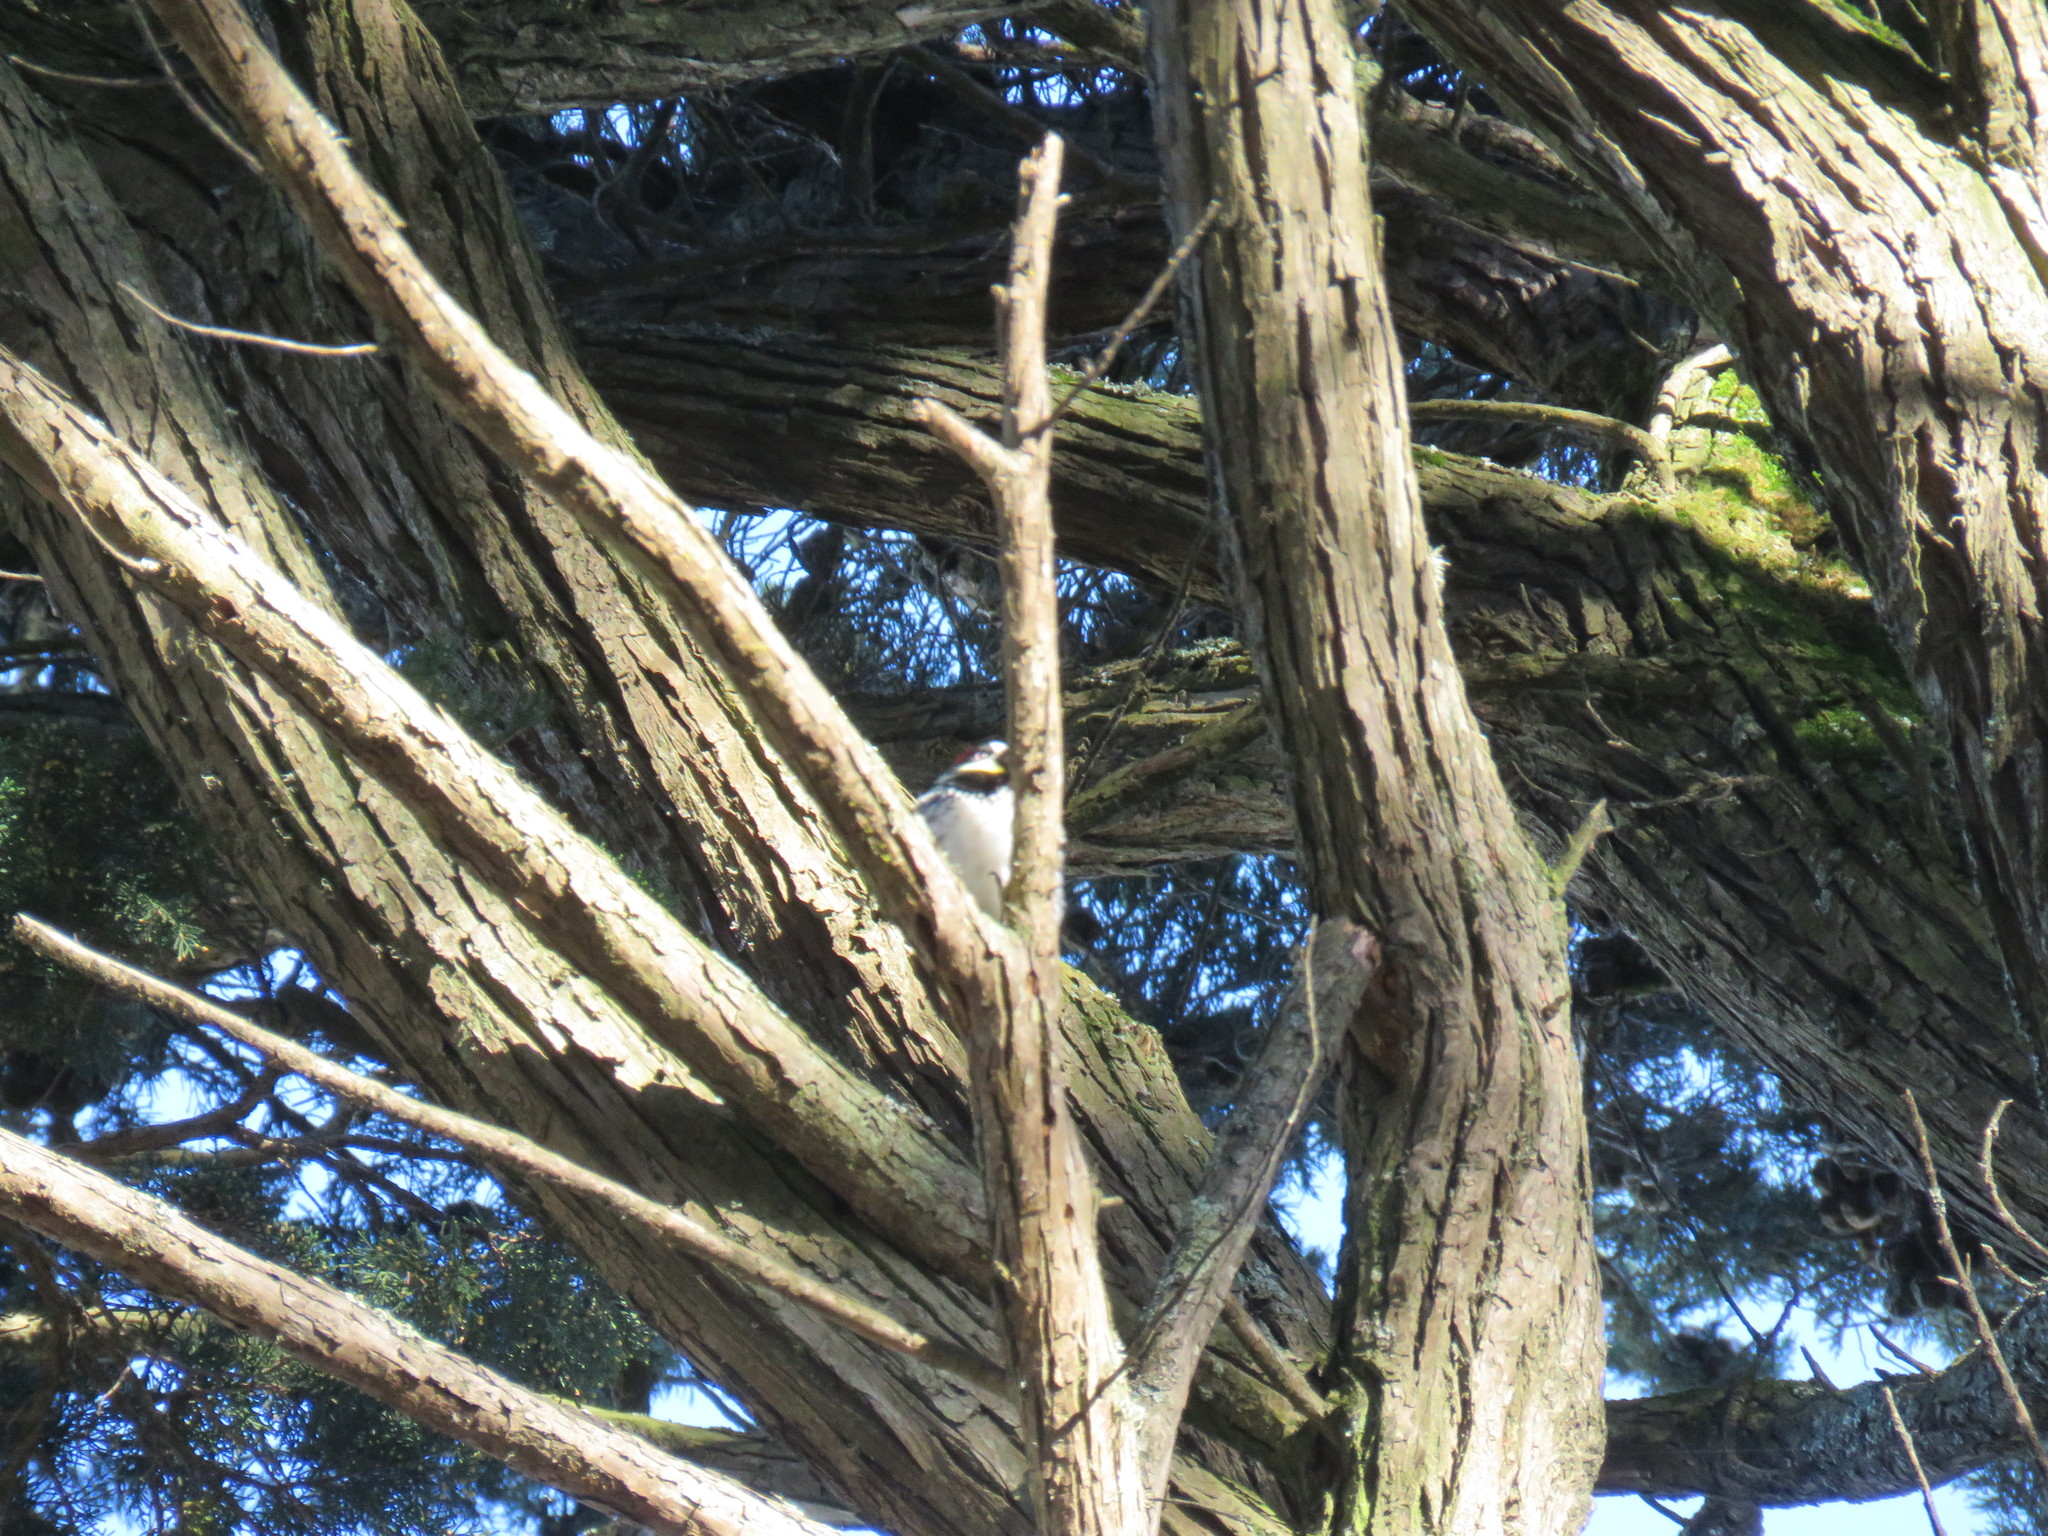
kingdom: Animalia
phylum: Chordata
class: Aves
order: Piciformes
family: Picidae
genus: Melanerpes
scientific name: Melanerpes formicivorus
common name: Acorn woodpecker
